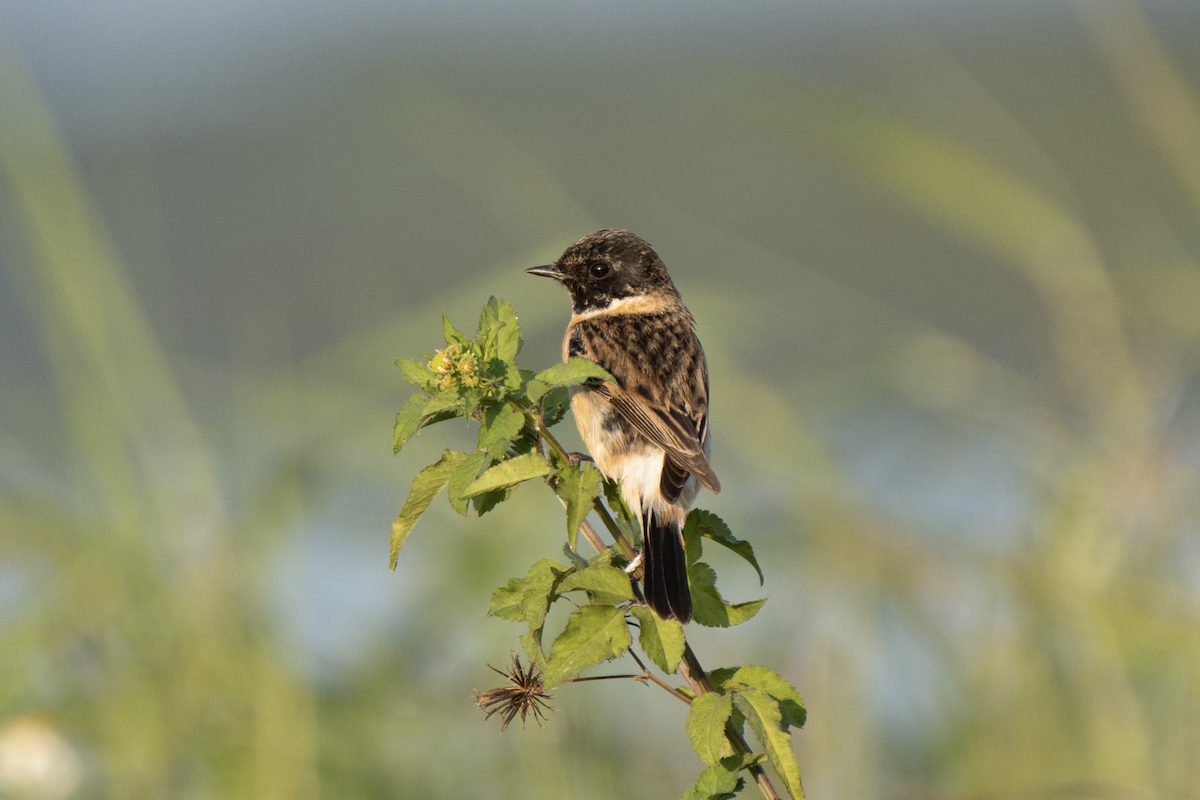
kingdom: Animalia
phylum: Chordata
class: Aves
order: Passeriformes
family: Muscicapidae
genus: Saxicola
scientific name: Saxicola stejnegeri
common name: Stejneger's stonechat
